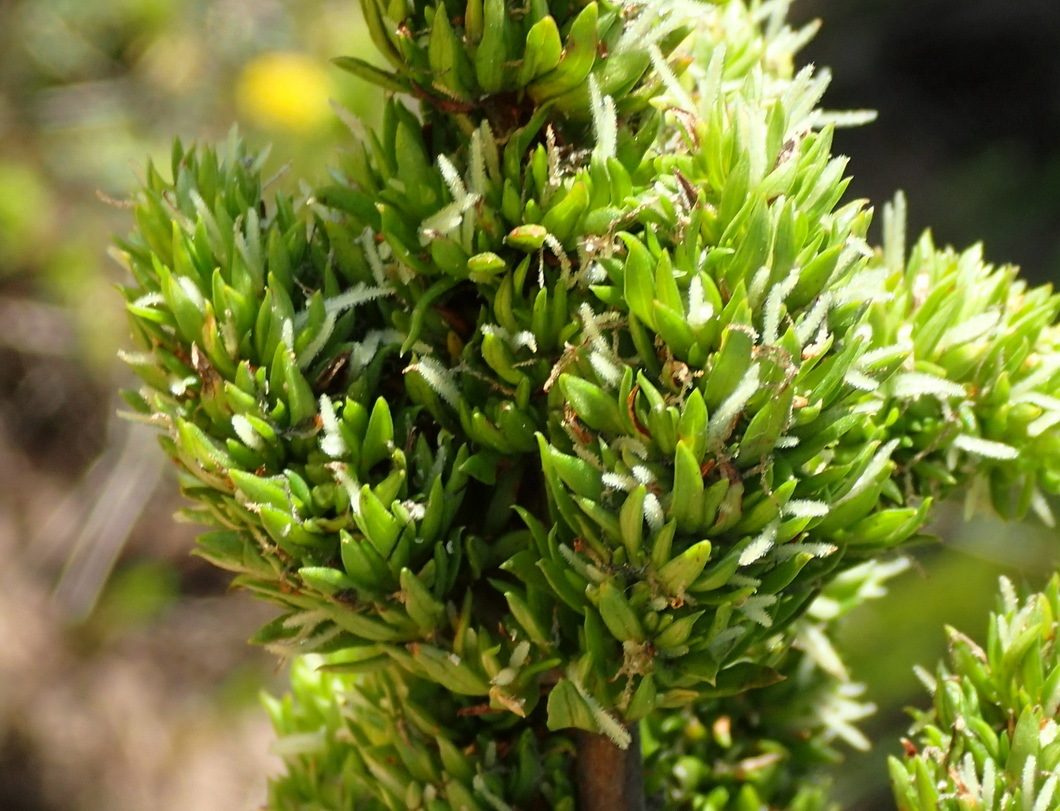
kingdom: Plantae
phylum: Tracheophyta
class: Magnoliopsida
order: Gentianales
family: Rubiaceae
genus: Anthospermum
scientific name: Anthospermum aethiopicum
